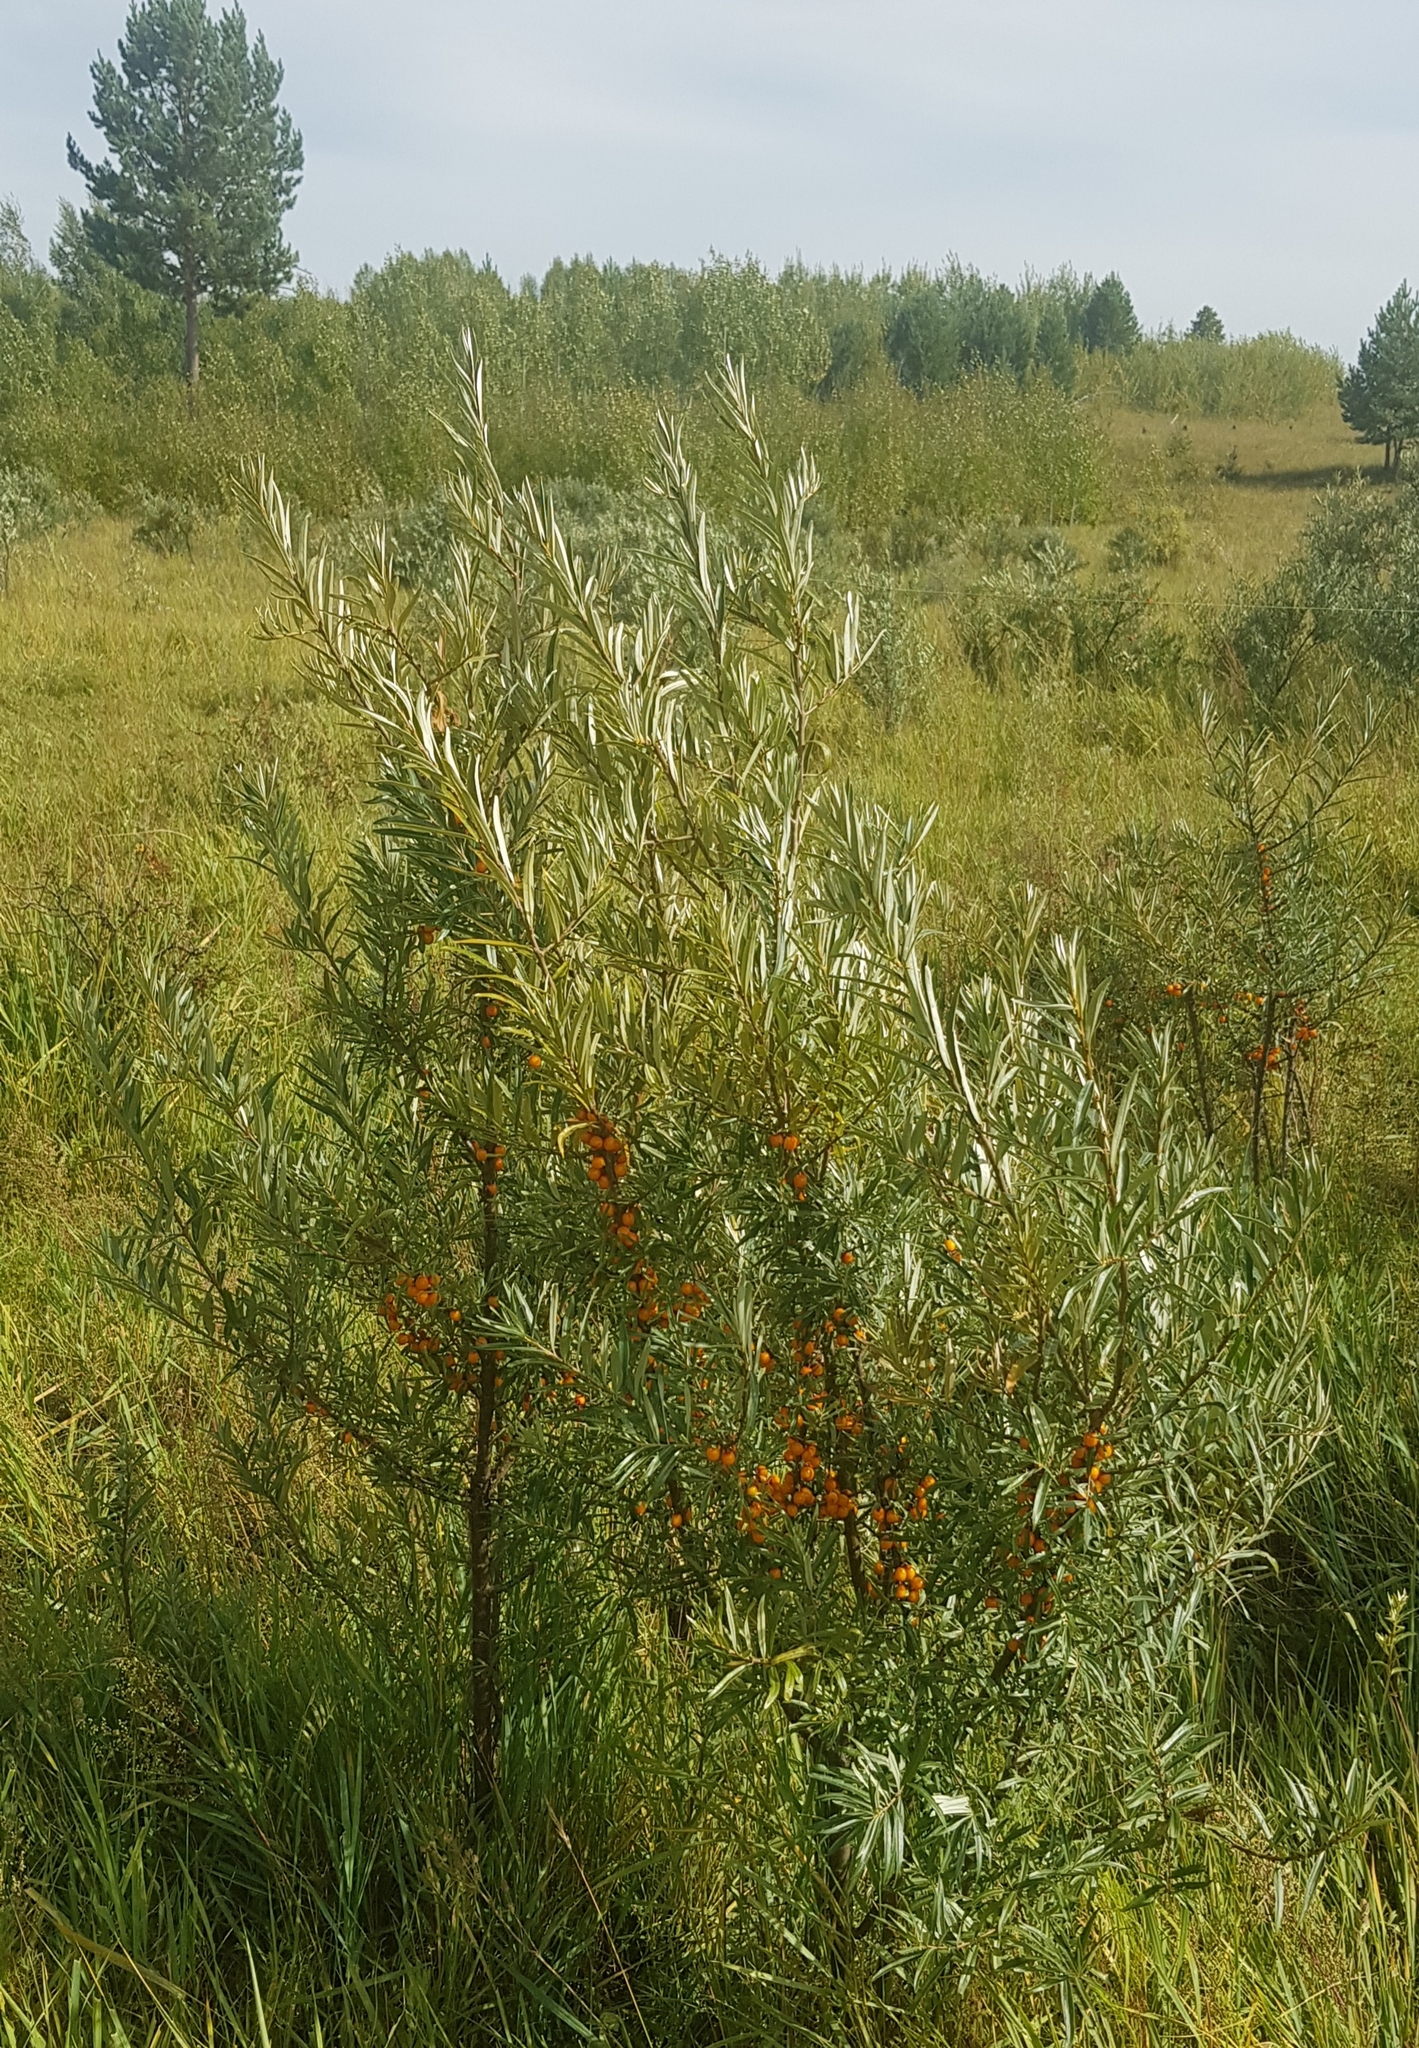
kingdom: Plantae
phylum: Tracheophyta
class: Magnoliopsida
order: Rosales
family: Elaeagnaceae
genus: Hippophae
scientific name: Hippophae rhamnoides
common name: Sea-buckthorn
